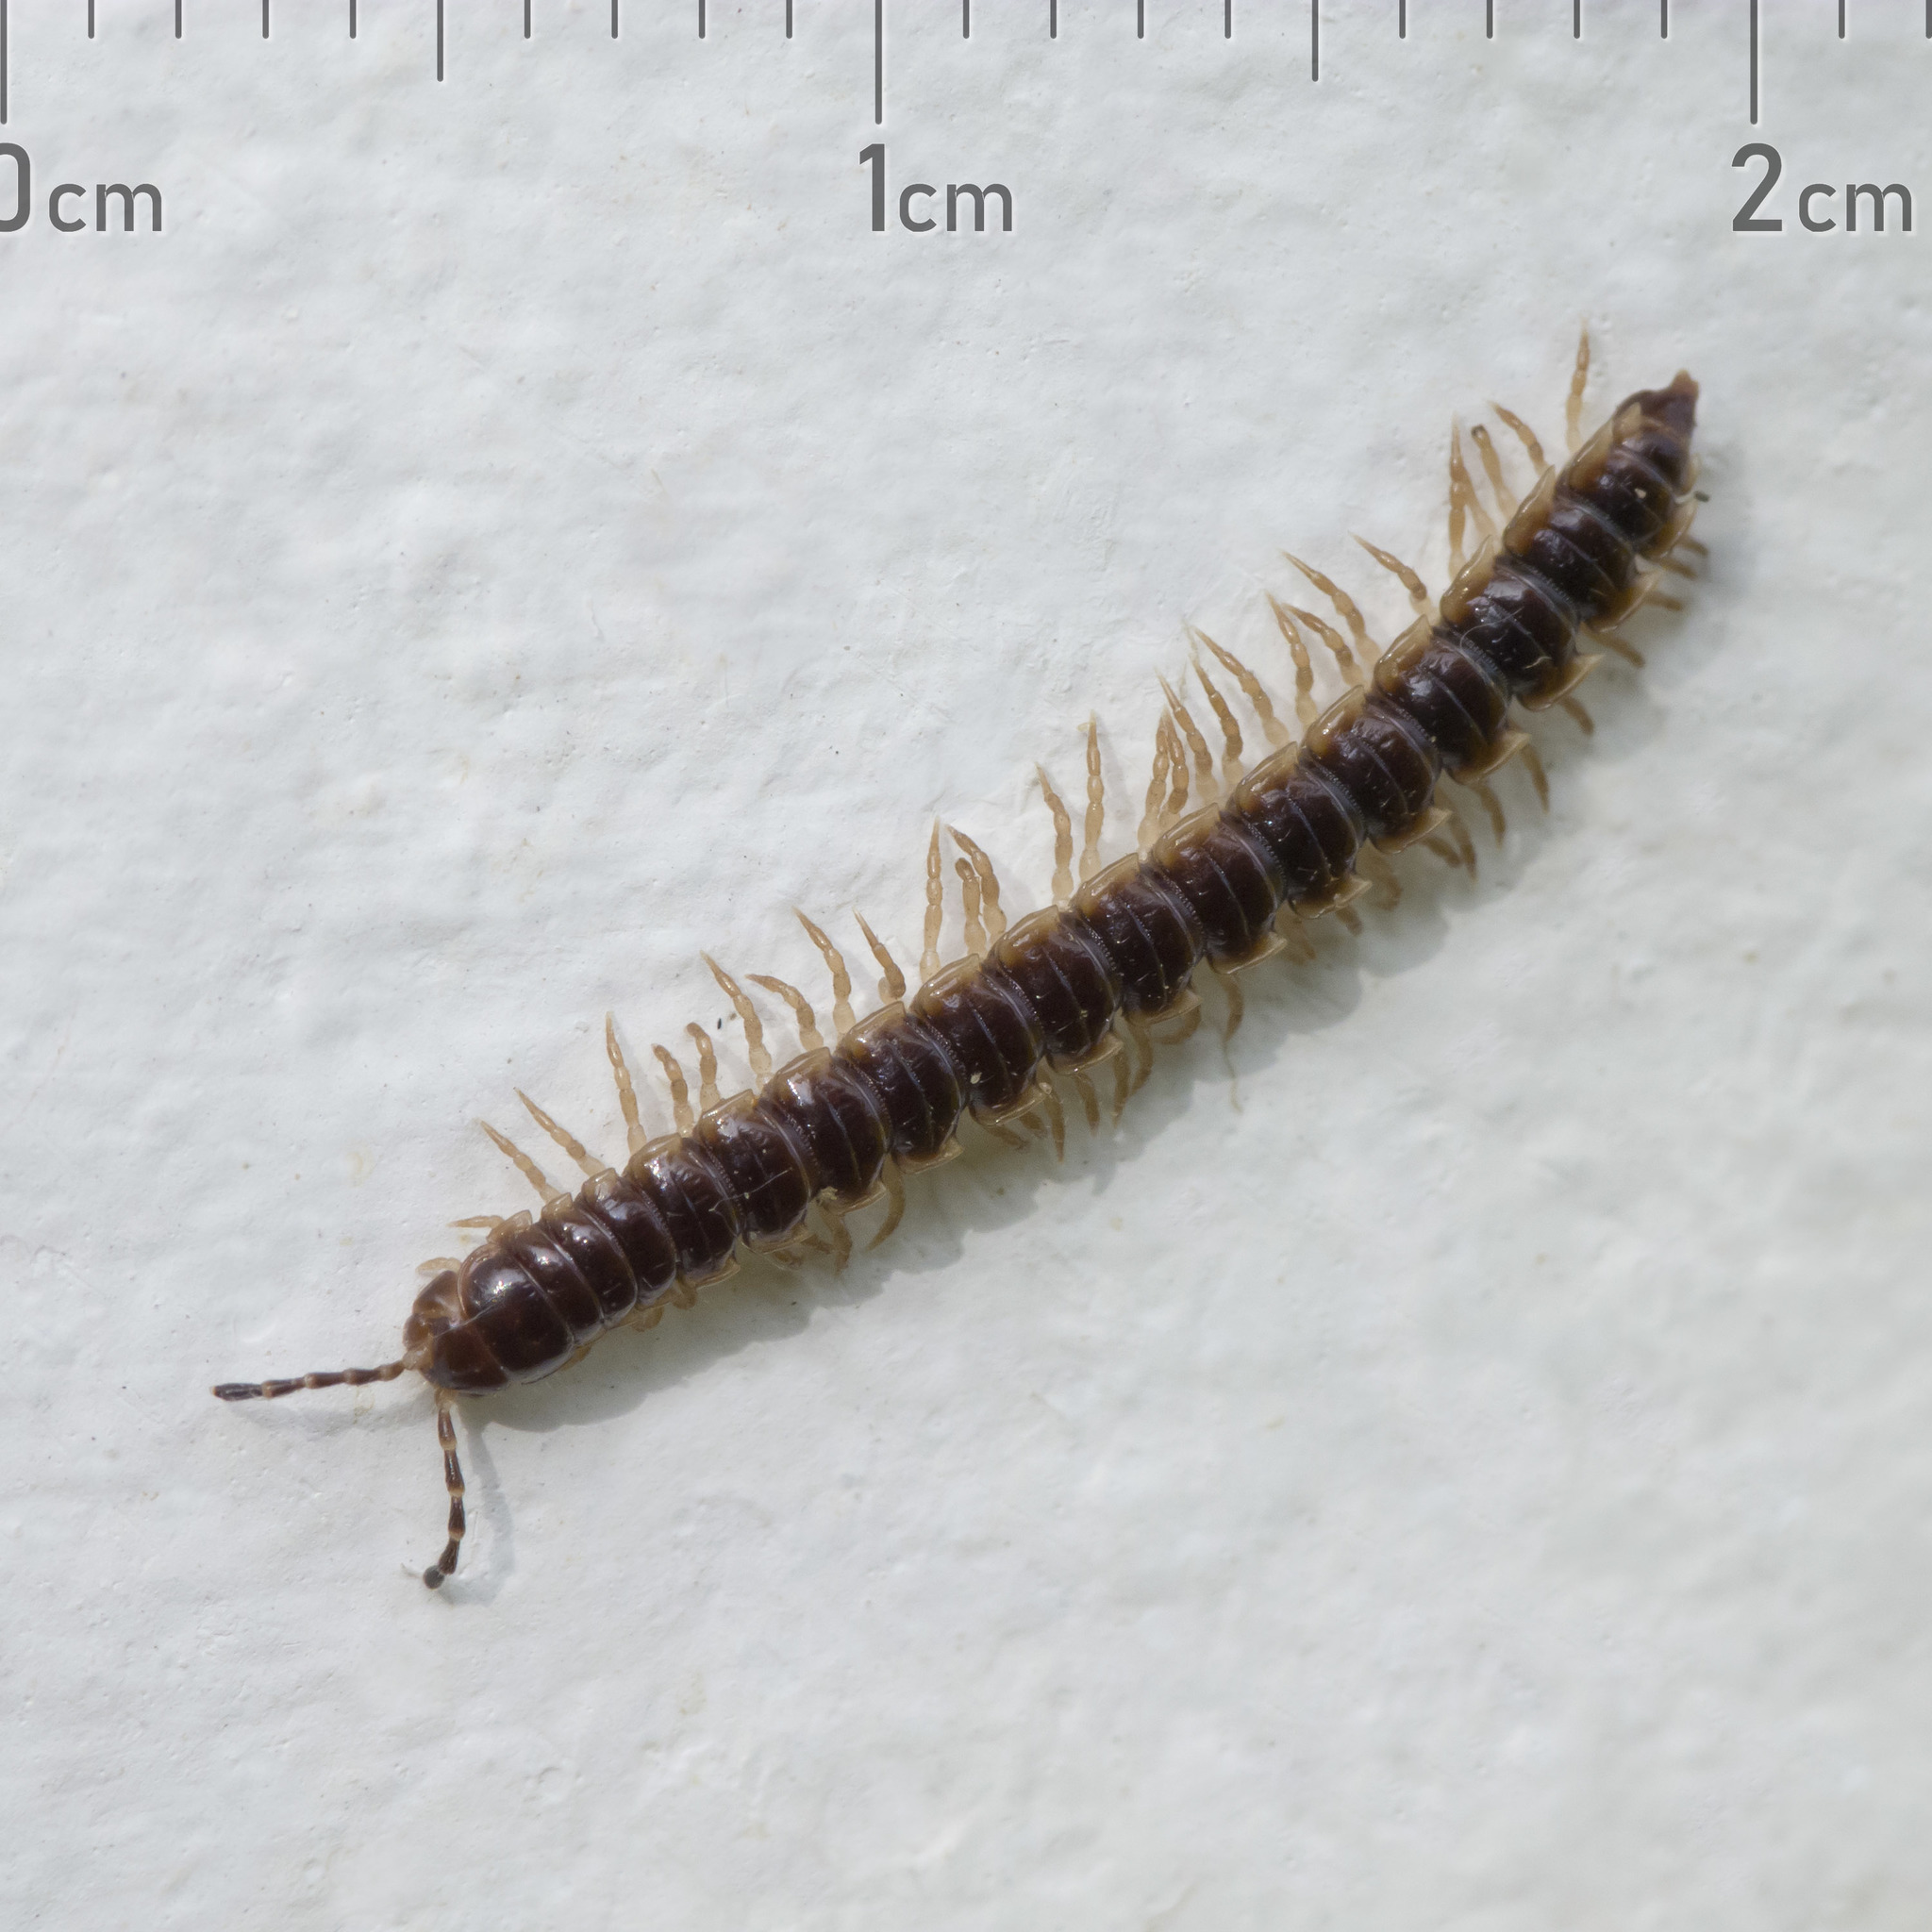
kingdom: Animalia
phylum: Arthropoda
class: Diplopoda
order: Polydesmida
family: Paradoxosomatidae
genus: Oxidus
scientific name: Oxidus gracilis
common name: Greenhouse millipede
